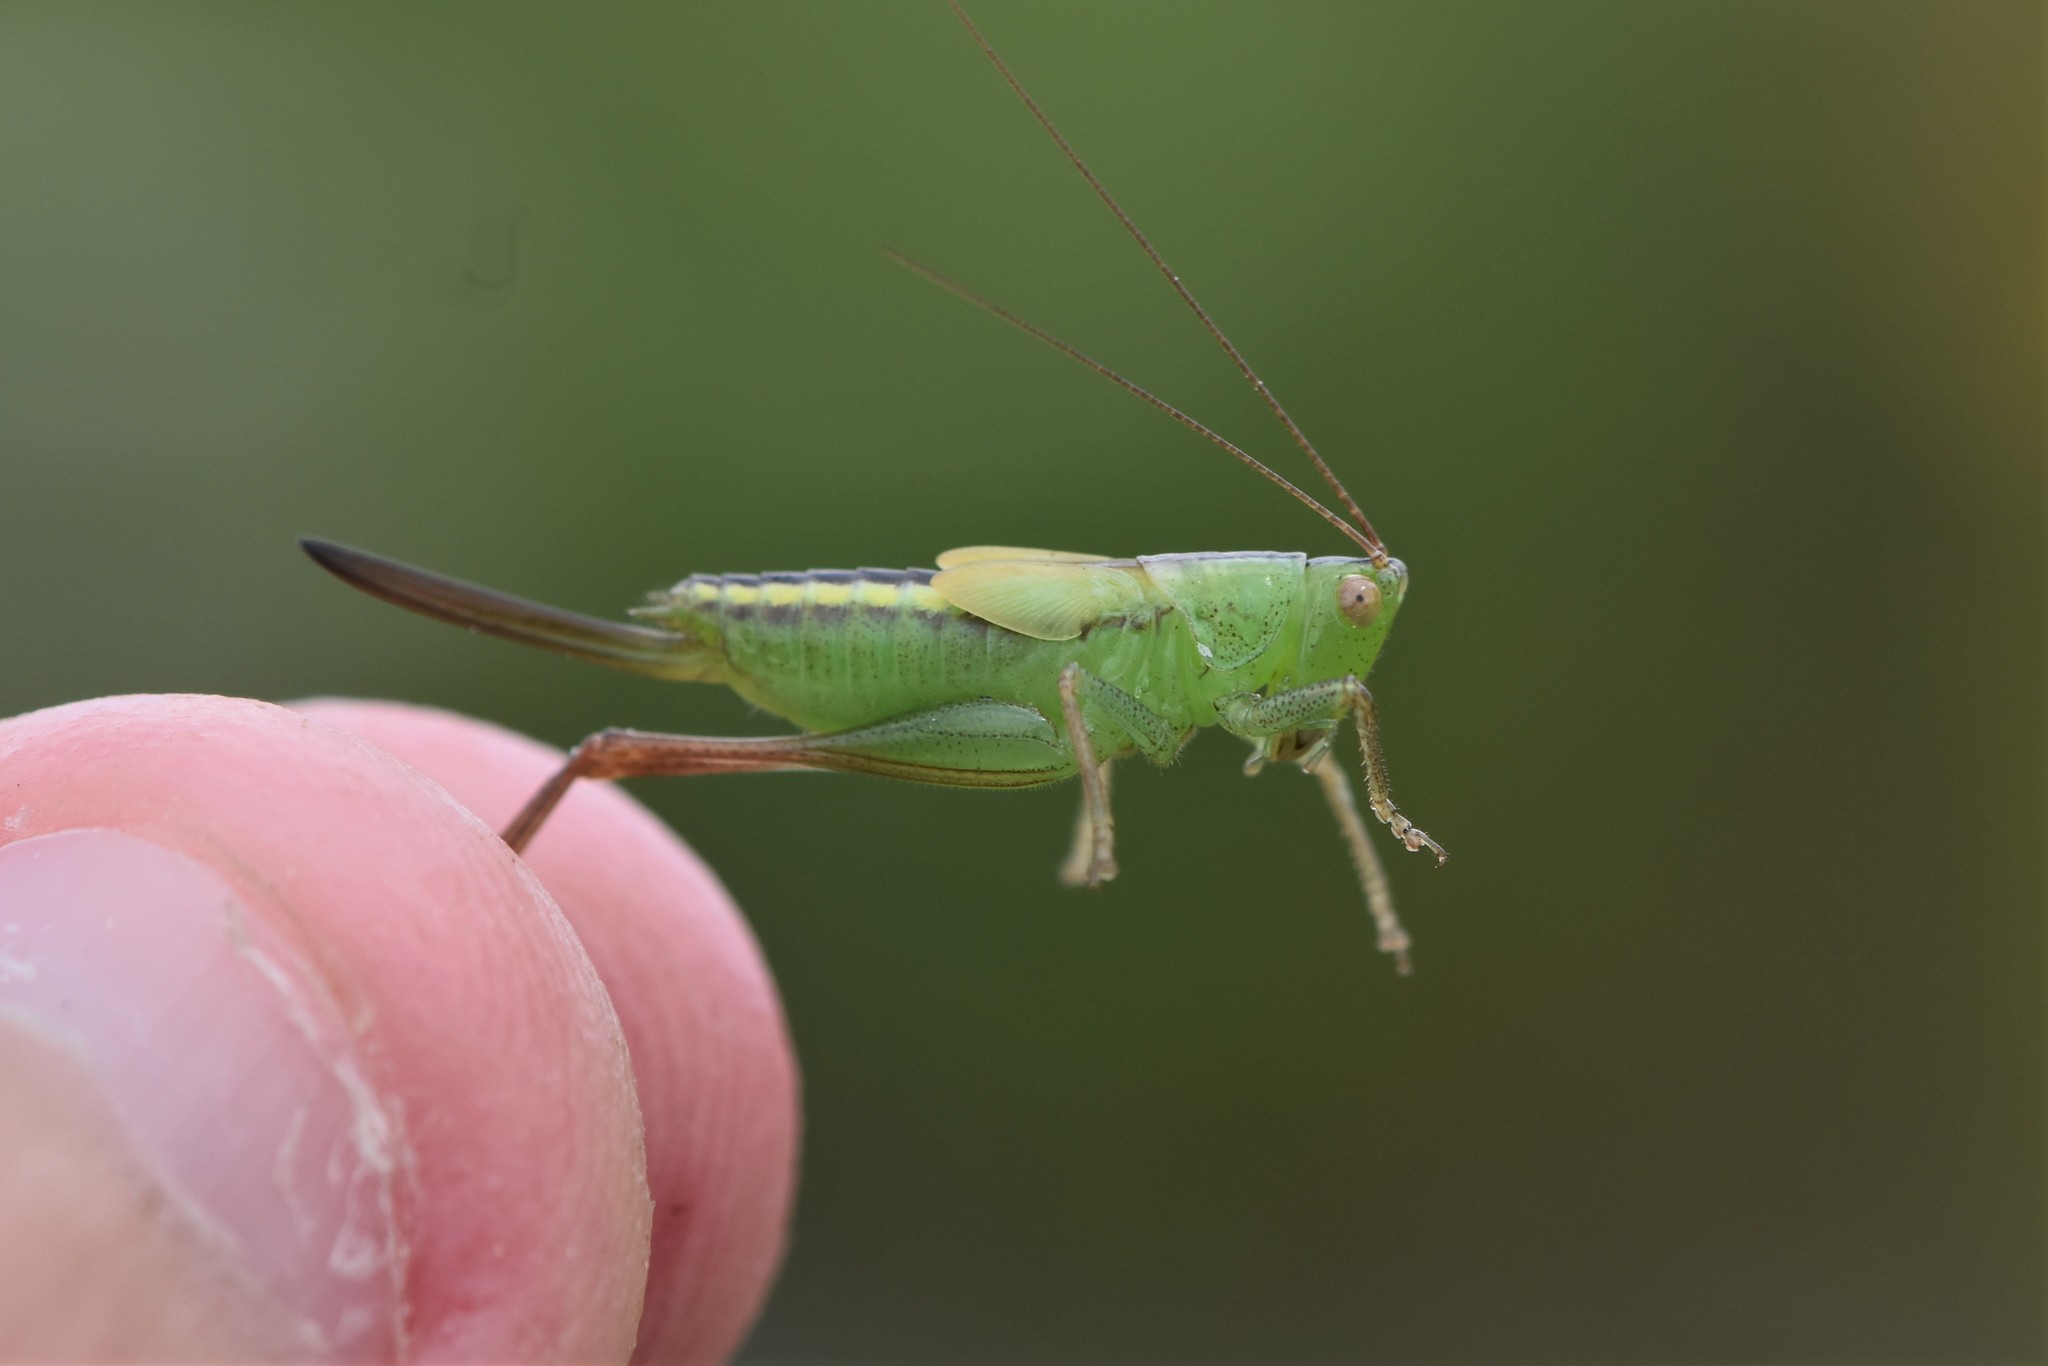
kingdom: Animalia
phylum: Arthropoda
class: Insecta
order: Orthoptera
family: Tettigoniidae
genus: Conocephalus
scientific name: Conocephalus fasciatus
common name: Slender meadow katydid
